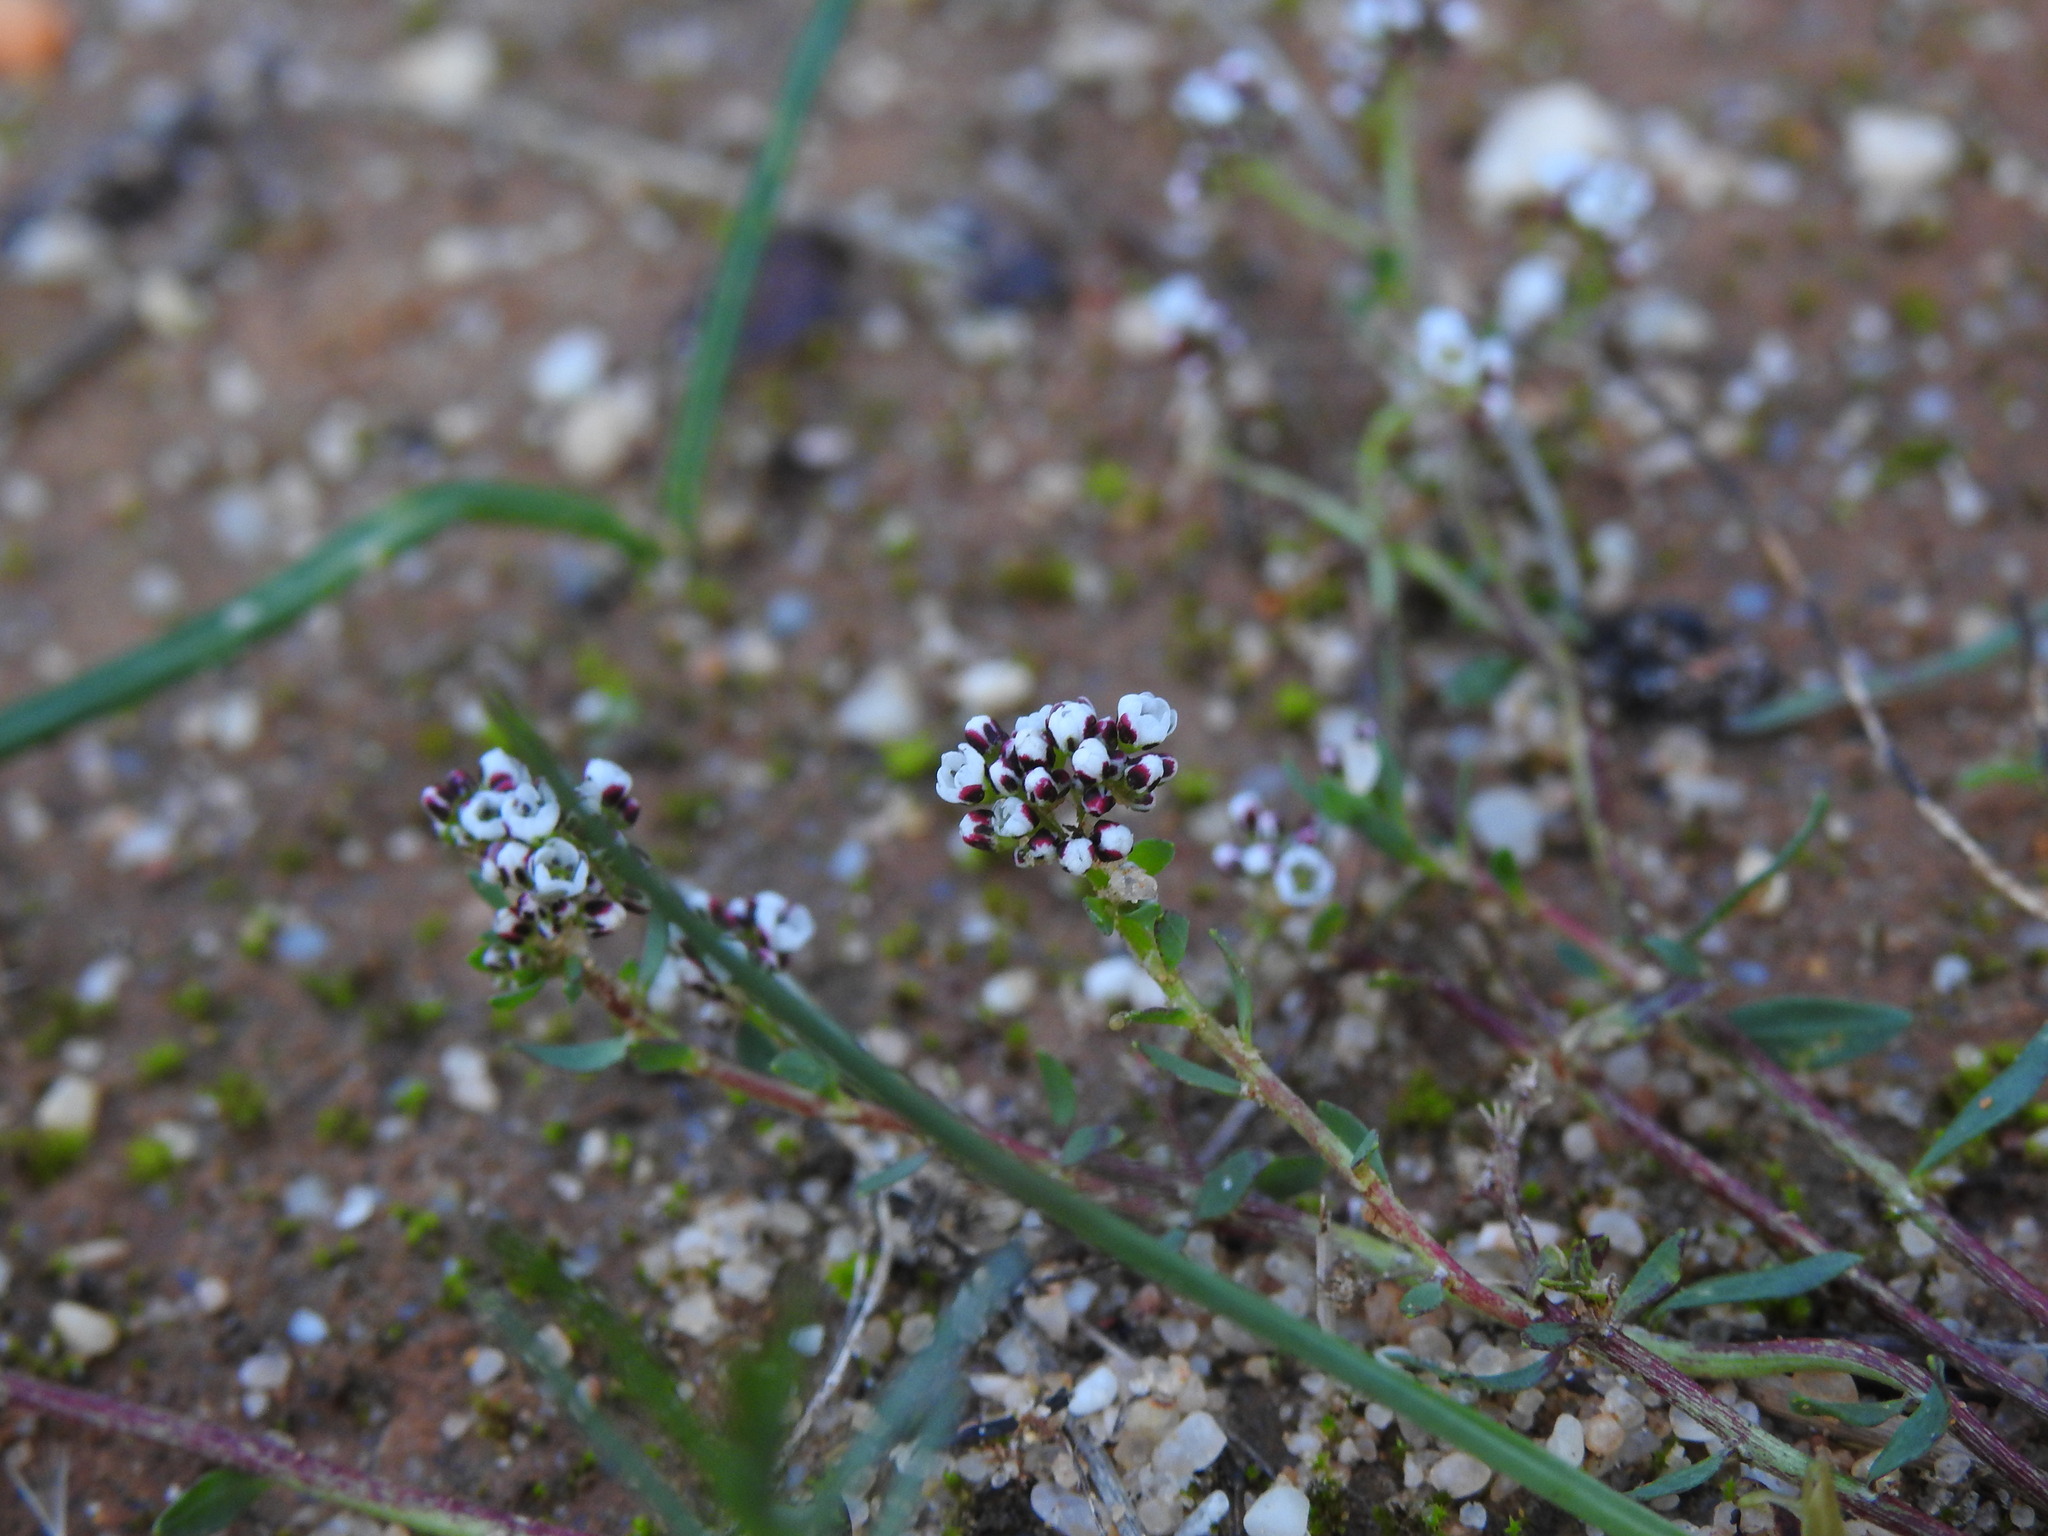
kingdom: Plantae
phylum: Tracheophyta
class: Magnoliopsida
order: Caryophyllales
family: Caryophyllaceae
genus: Corrigiola
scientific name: Corrigiola litoralis
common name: Strapwort
